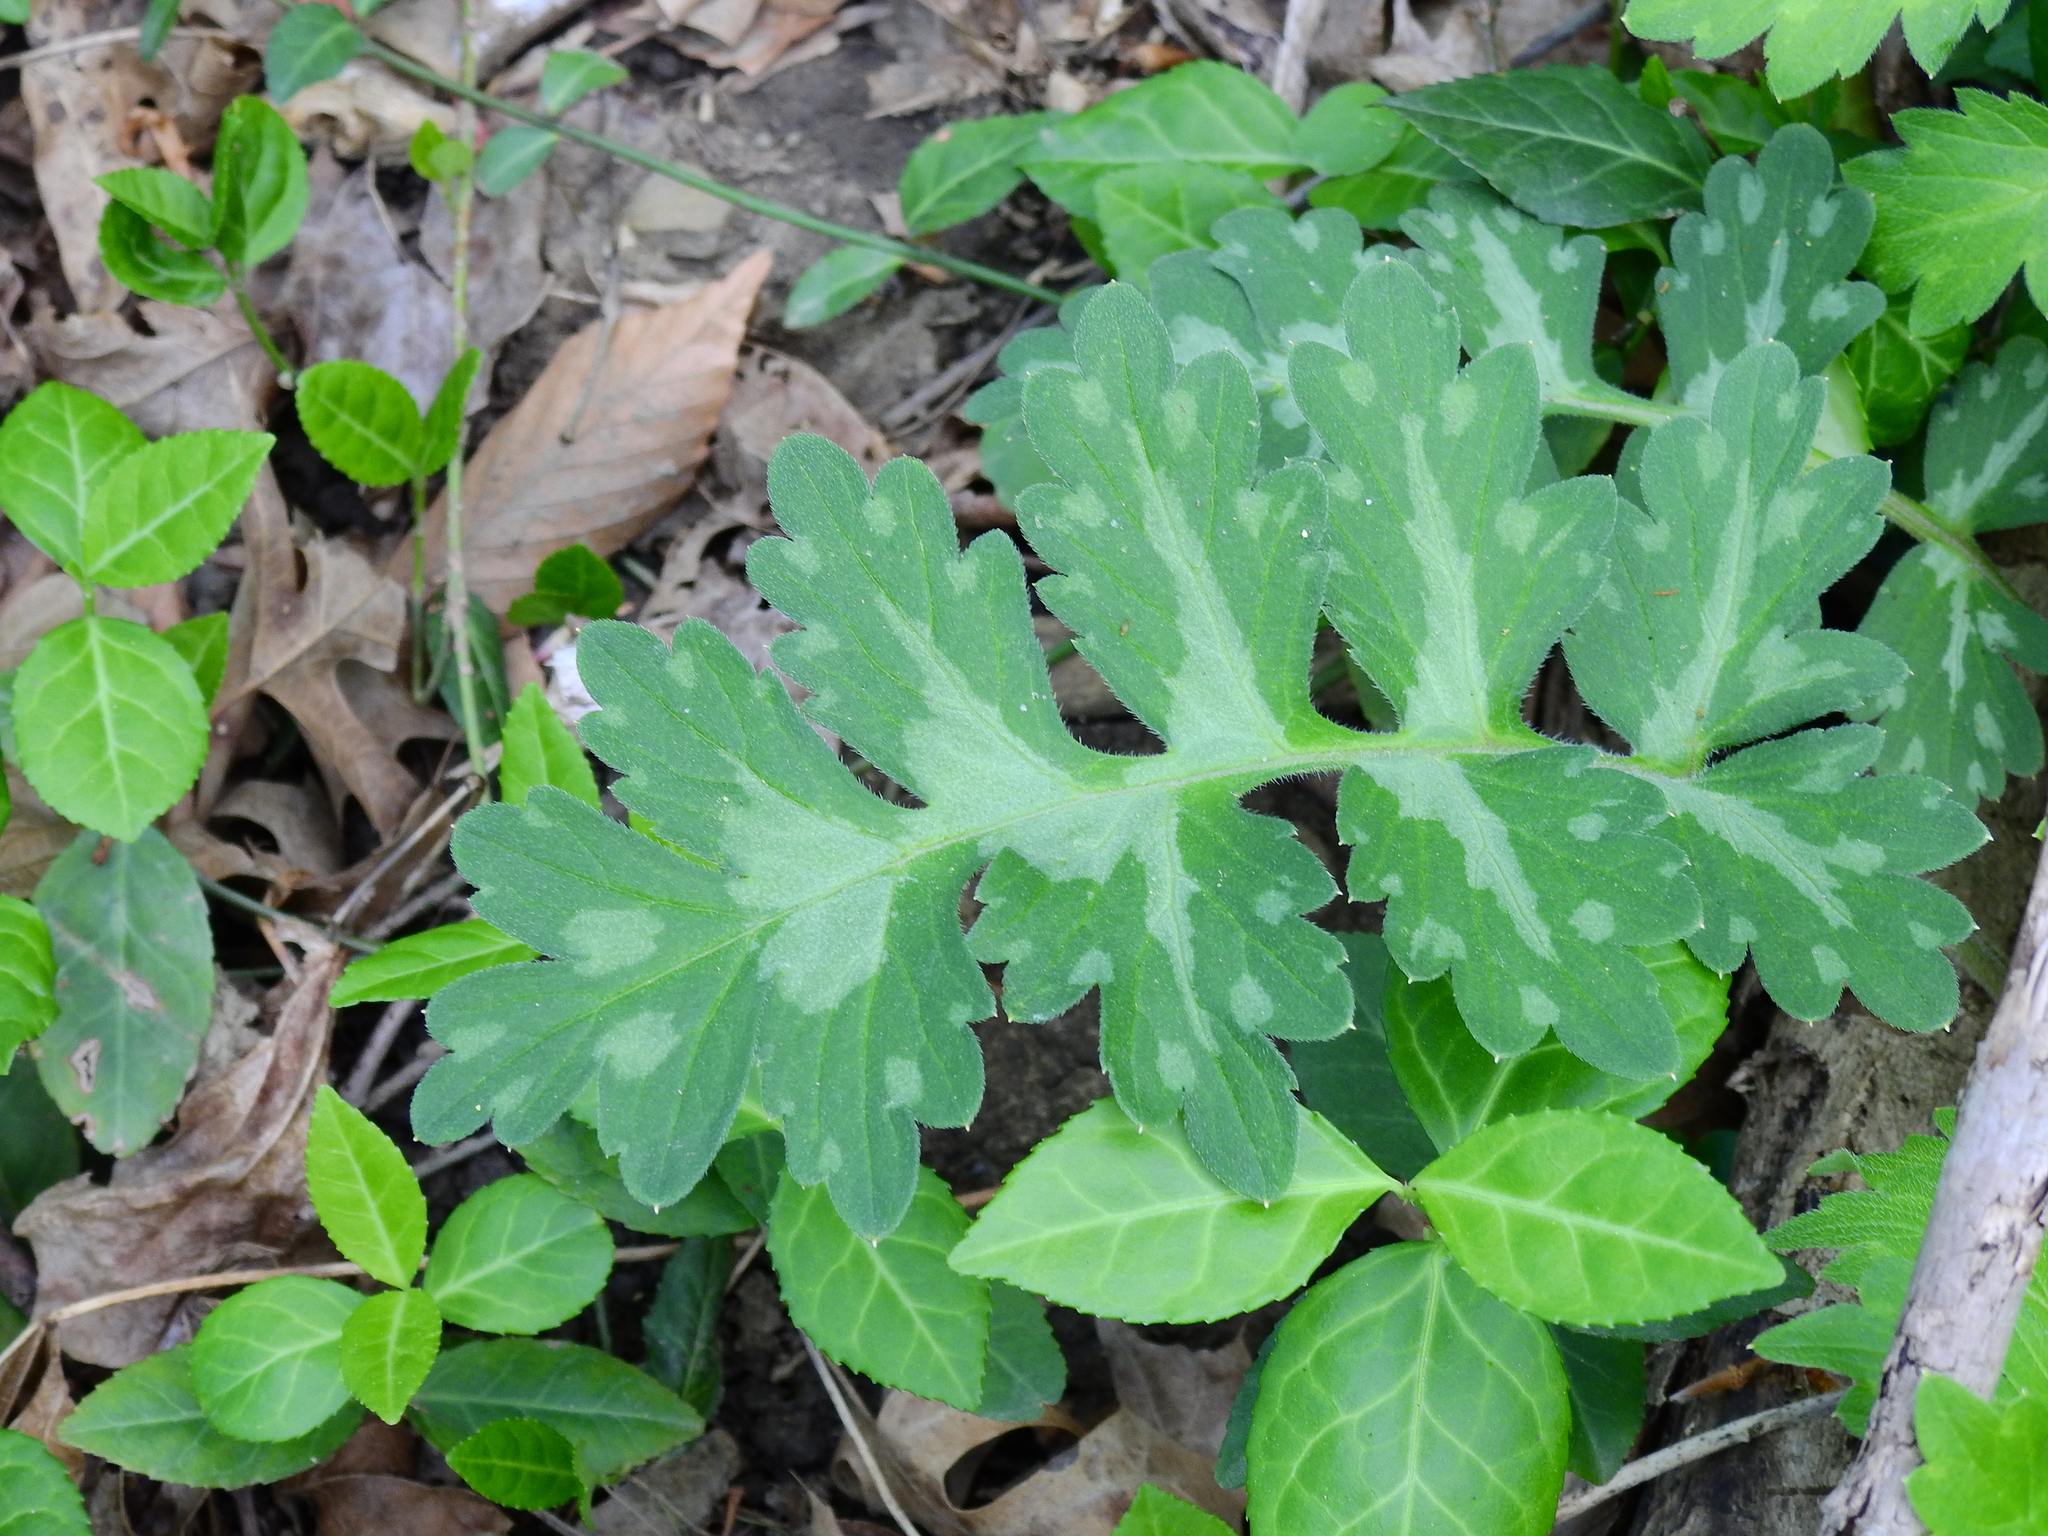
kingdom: Plantae
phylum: Tracheophyta
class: Magnoliopsida
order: Boraginales
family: Hydrophyllaceae
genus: Hydrophyllum
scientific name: Hydrophyllum macrophyllum
